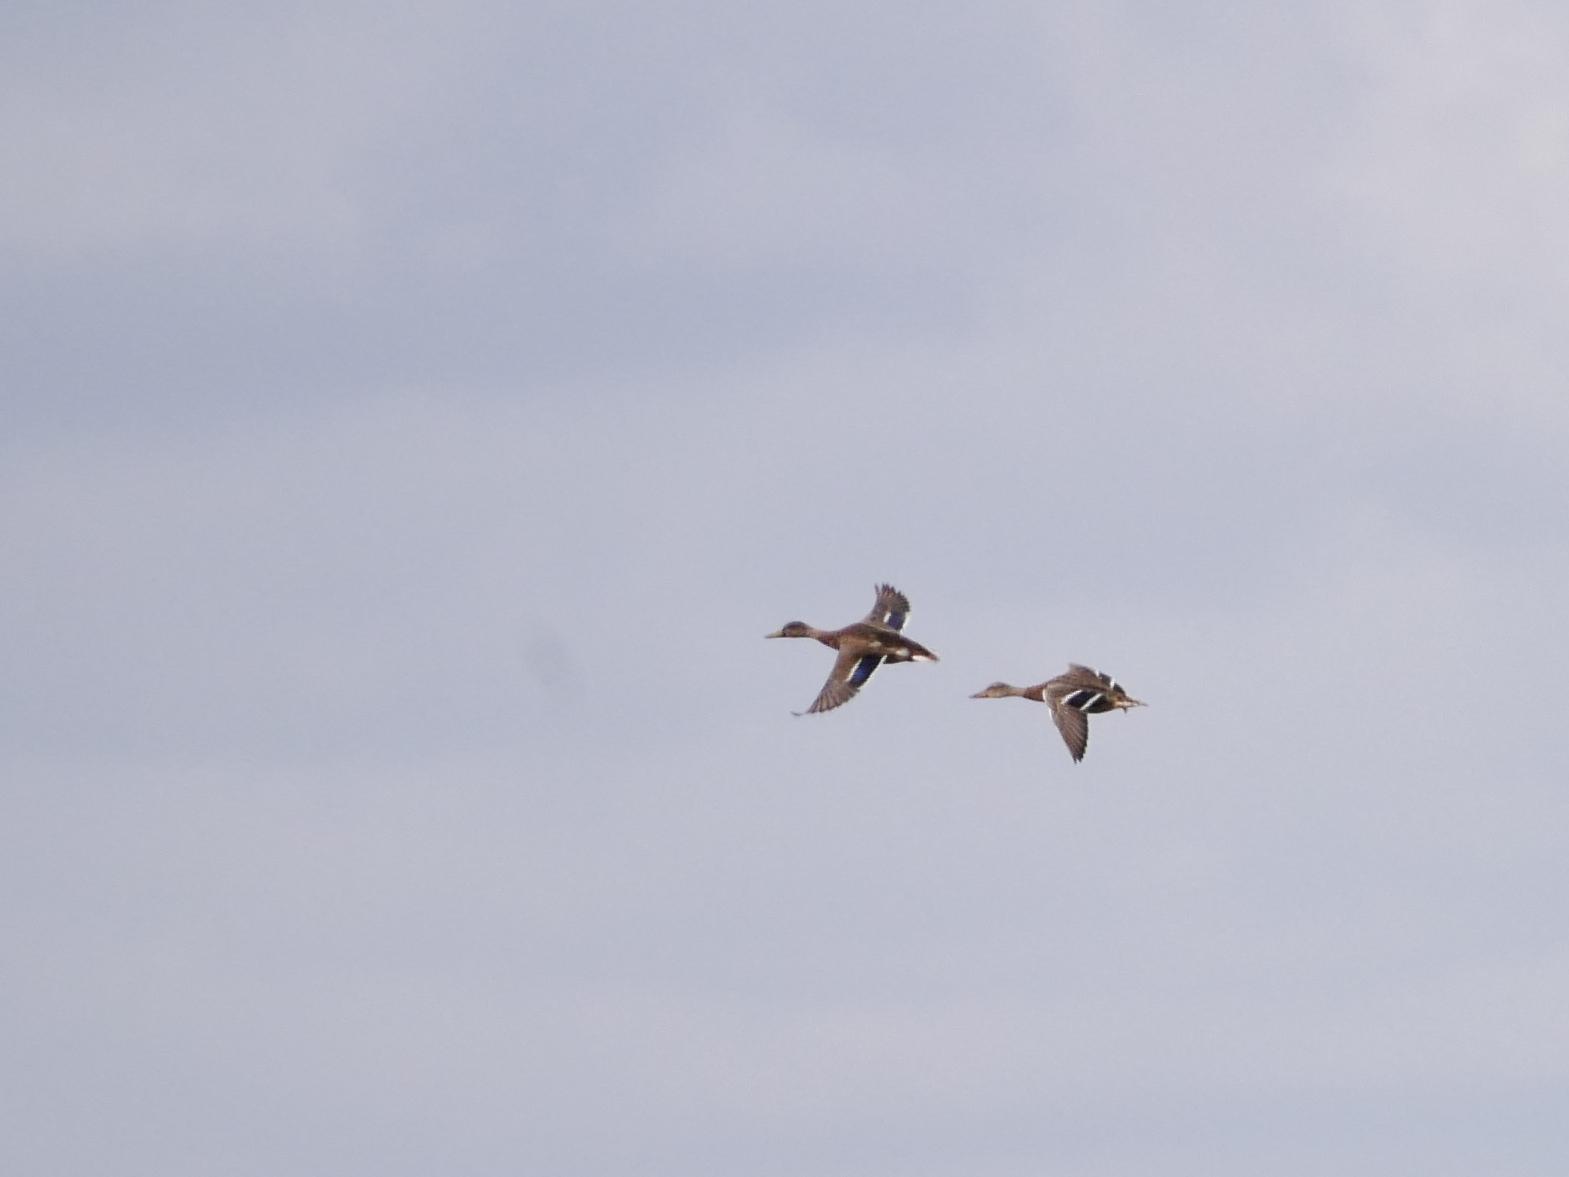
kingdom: Animalia
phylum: Chordata
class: Aves
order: Anseriformes
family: Anatidae
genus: Anas
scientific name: Anas platyrhynchos
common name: Mallard
